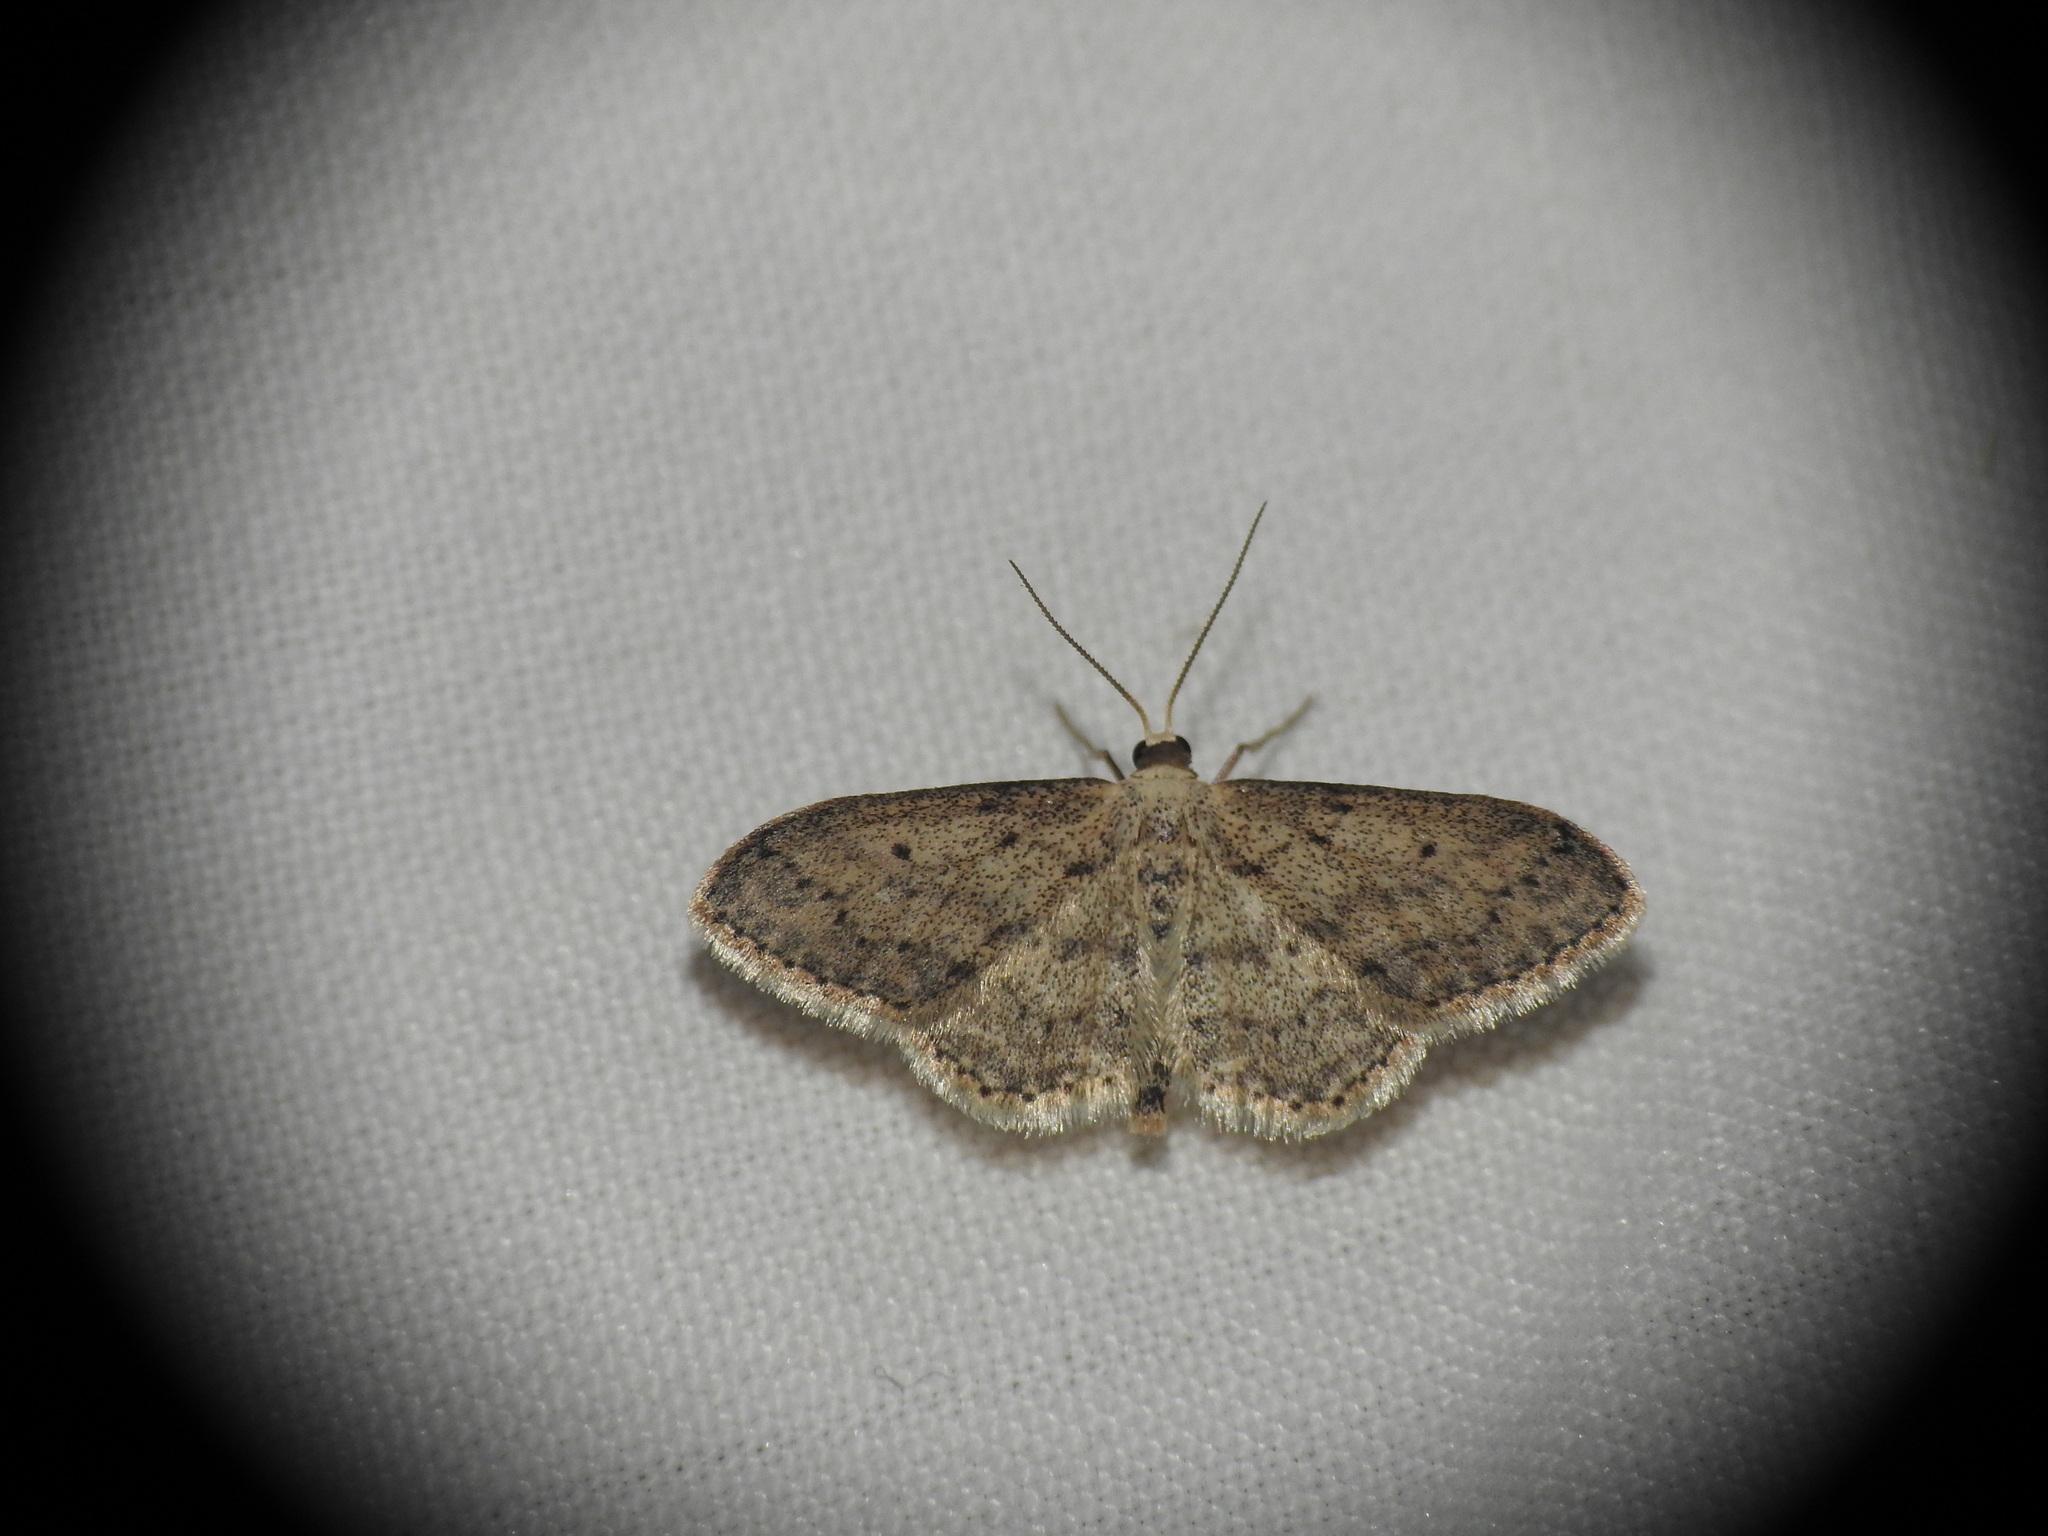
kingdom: Animalia
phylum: Arthropoda
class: Insecta
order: Lepidoptera
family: Geometridae
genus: Idaea
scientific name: Idaea seriata
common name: Small dusty wave
